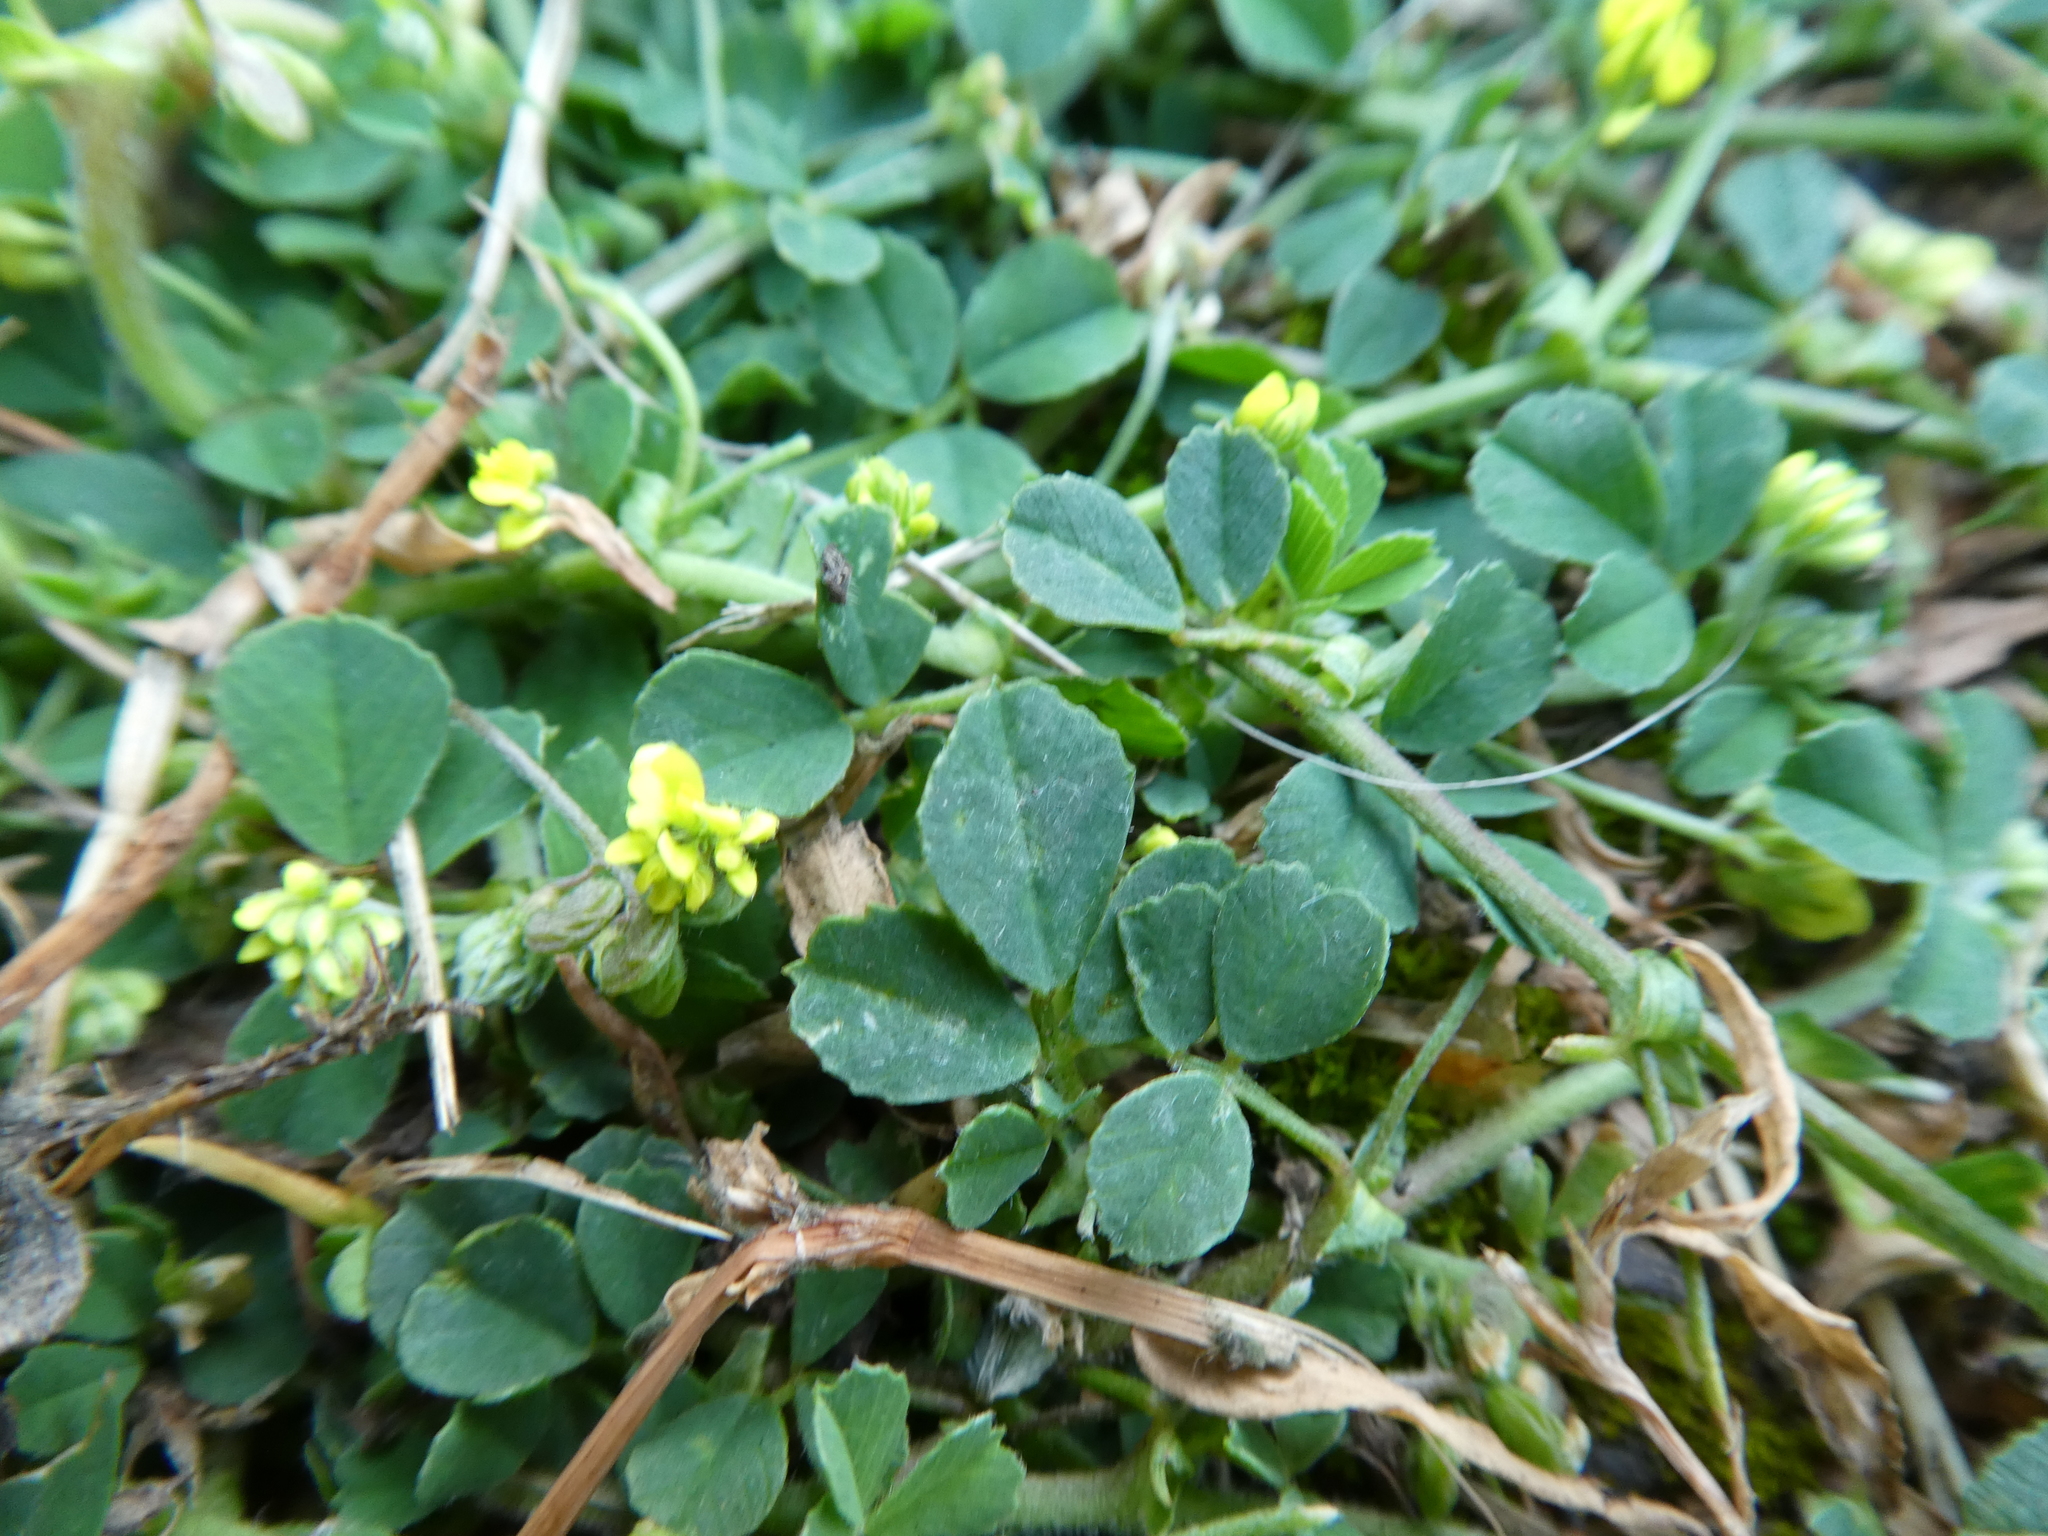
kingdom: Plantae
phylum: Tracheophyta
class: Magnoliopsida
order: Fabales
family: Fabaceae
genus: Medicago
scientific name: Medicago lupulina
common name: Black medick
